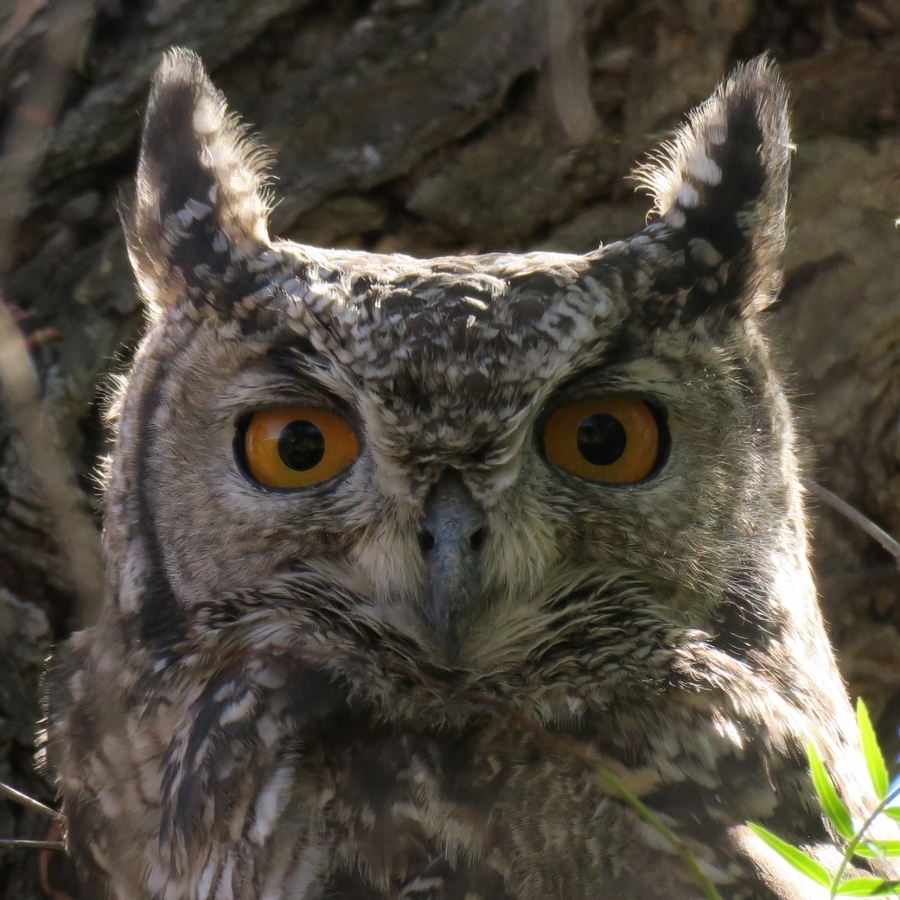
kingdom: Animalia
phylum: Chordata
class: Aves
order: Strigiformes
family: Strigidae
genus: Bubo
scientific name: Bubo africanus
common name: Spotted eagle-owl
